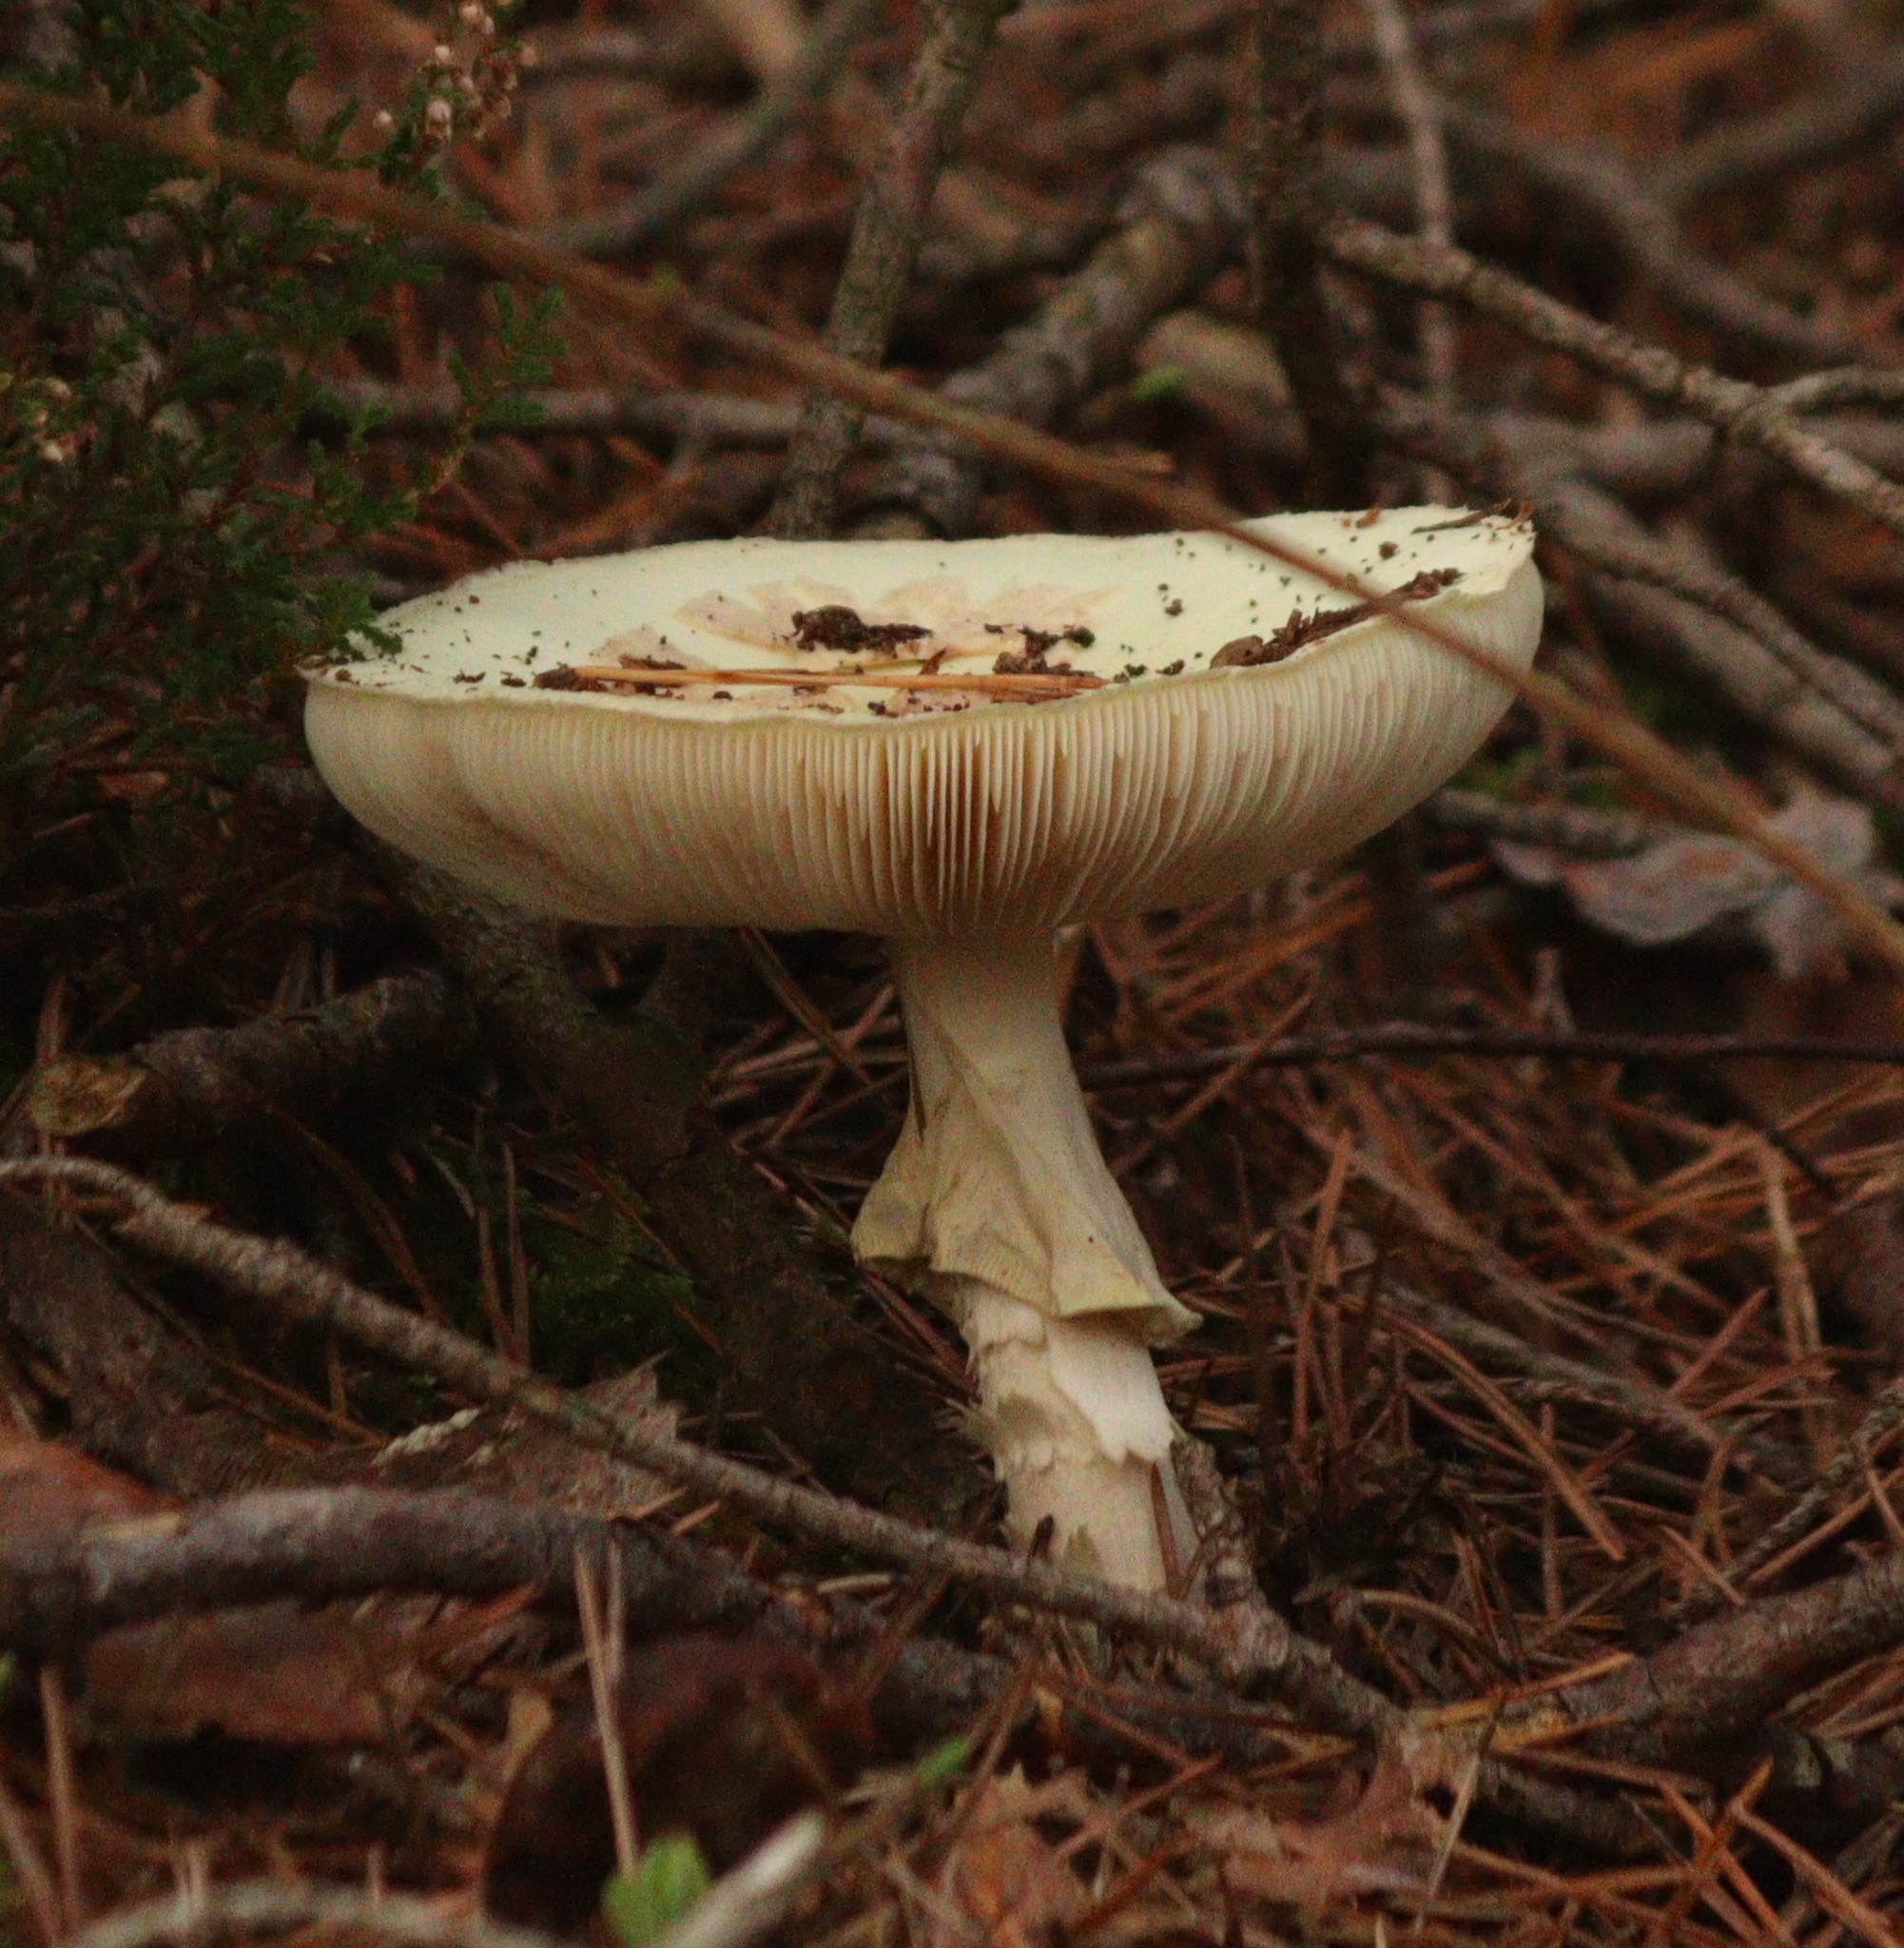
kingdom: Fungi
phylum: Basidiomycota
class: Agaricomycetes
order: Agaricales
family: Amanitaceae
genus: Amanita
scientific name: Amanita citrina
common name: False death-cap
